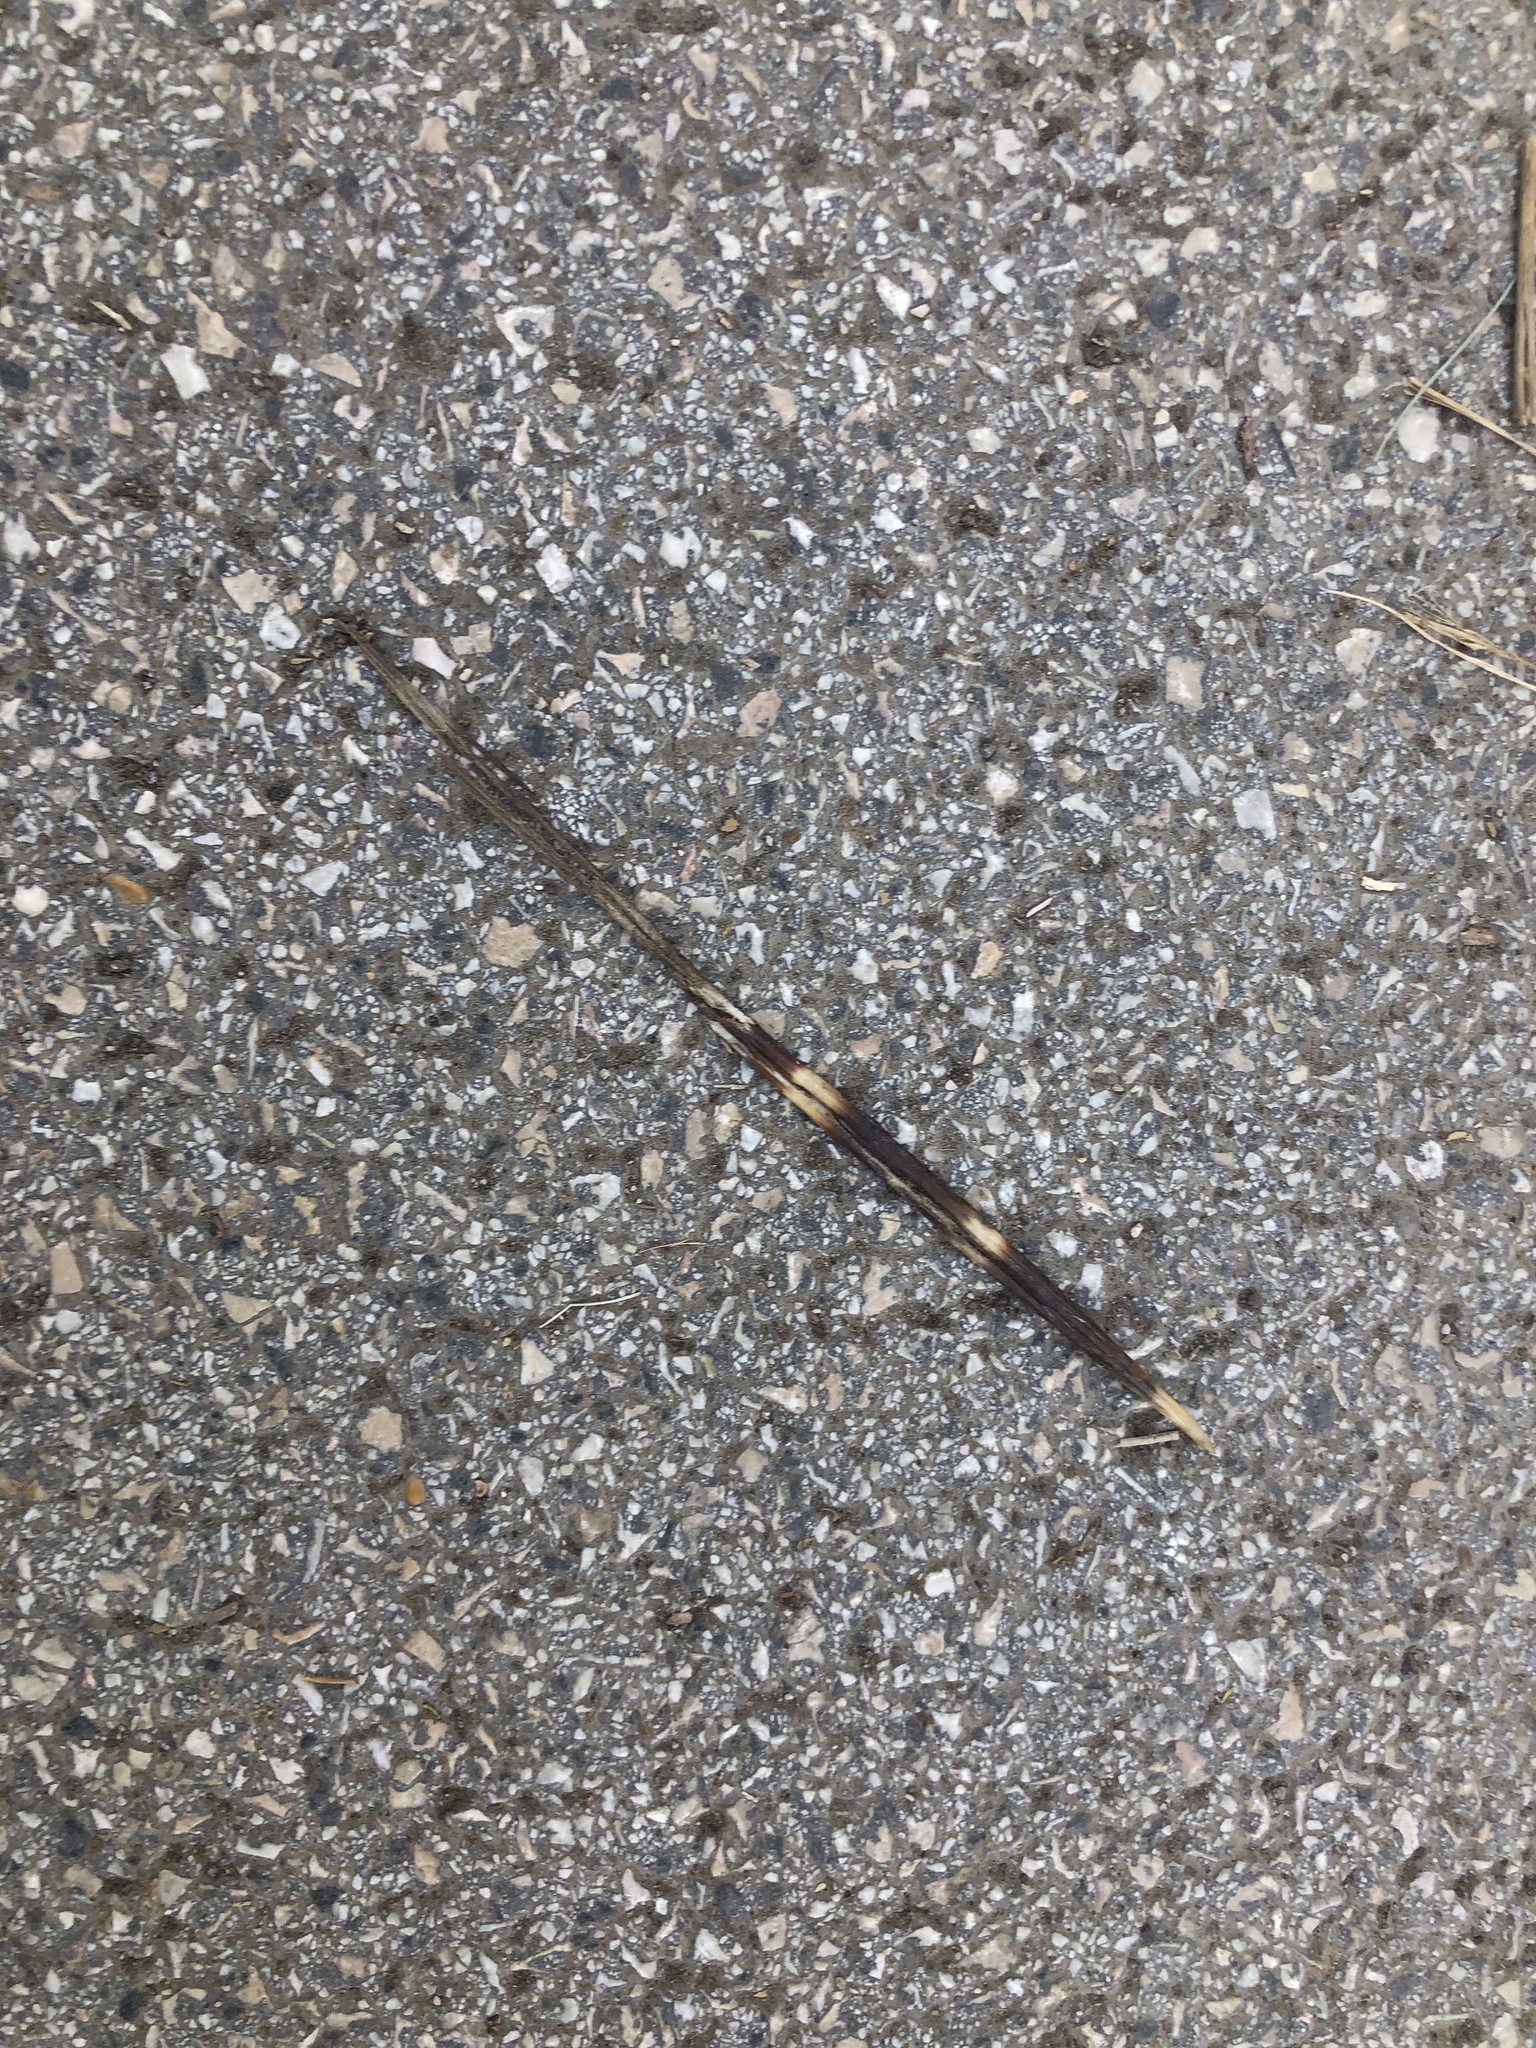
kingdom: Animalia
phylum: Chordata
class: Mammalia
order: Rodentia
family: Hystricidae
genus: Hystrix
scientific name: Hystrix cristata
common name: Crested porcupine
